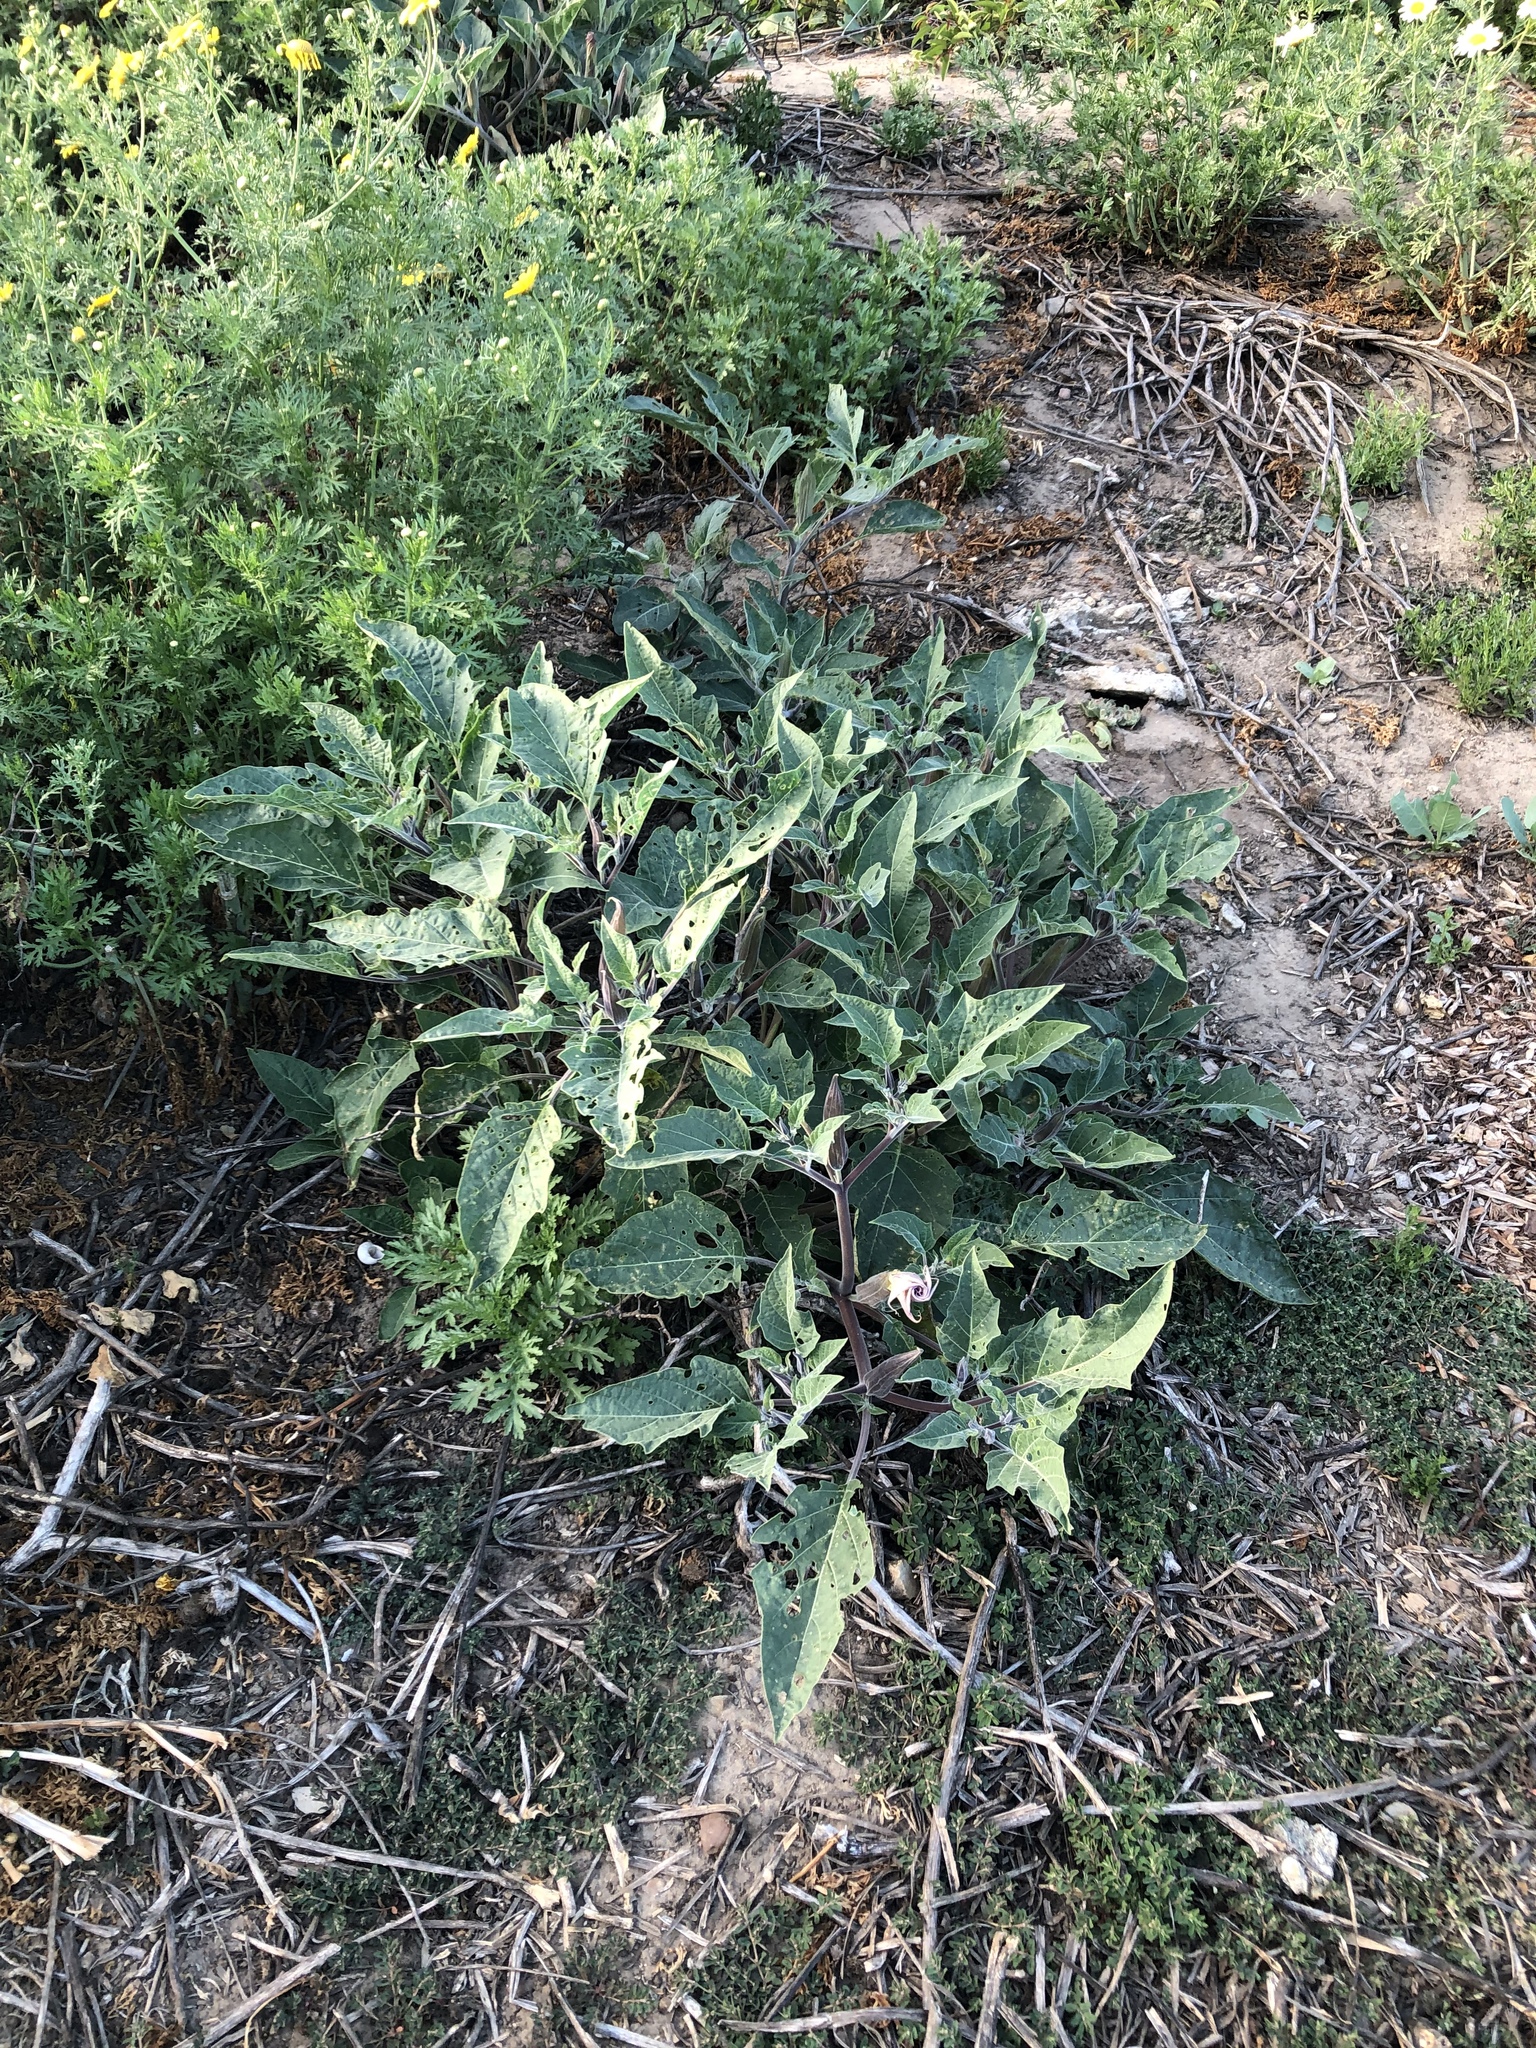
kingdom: Plantae
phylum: Tracheophyta
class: Magnoliopsida
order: Solanales
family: Solanaceae
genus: Datura
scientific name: Datura wrightii
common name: Sacred thorn-apple
